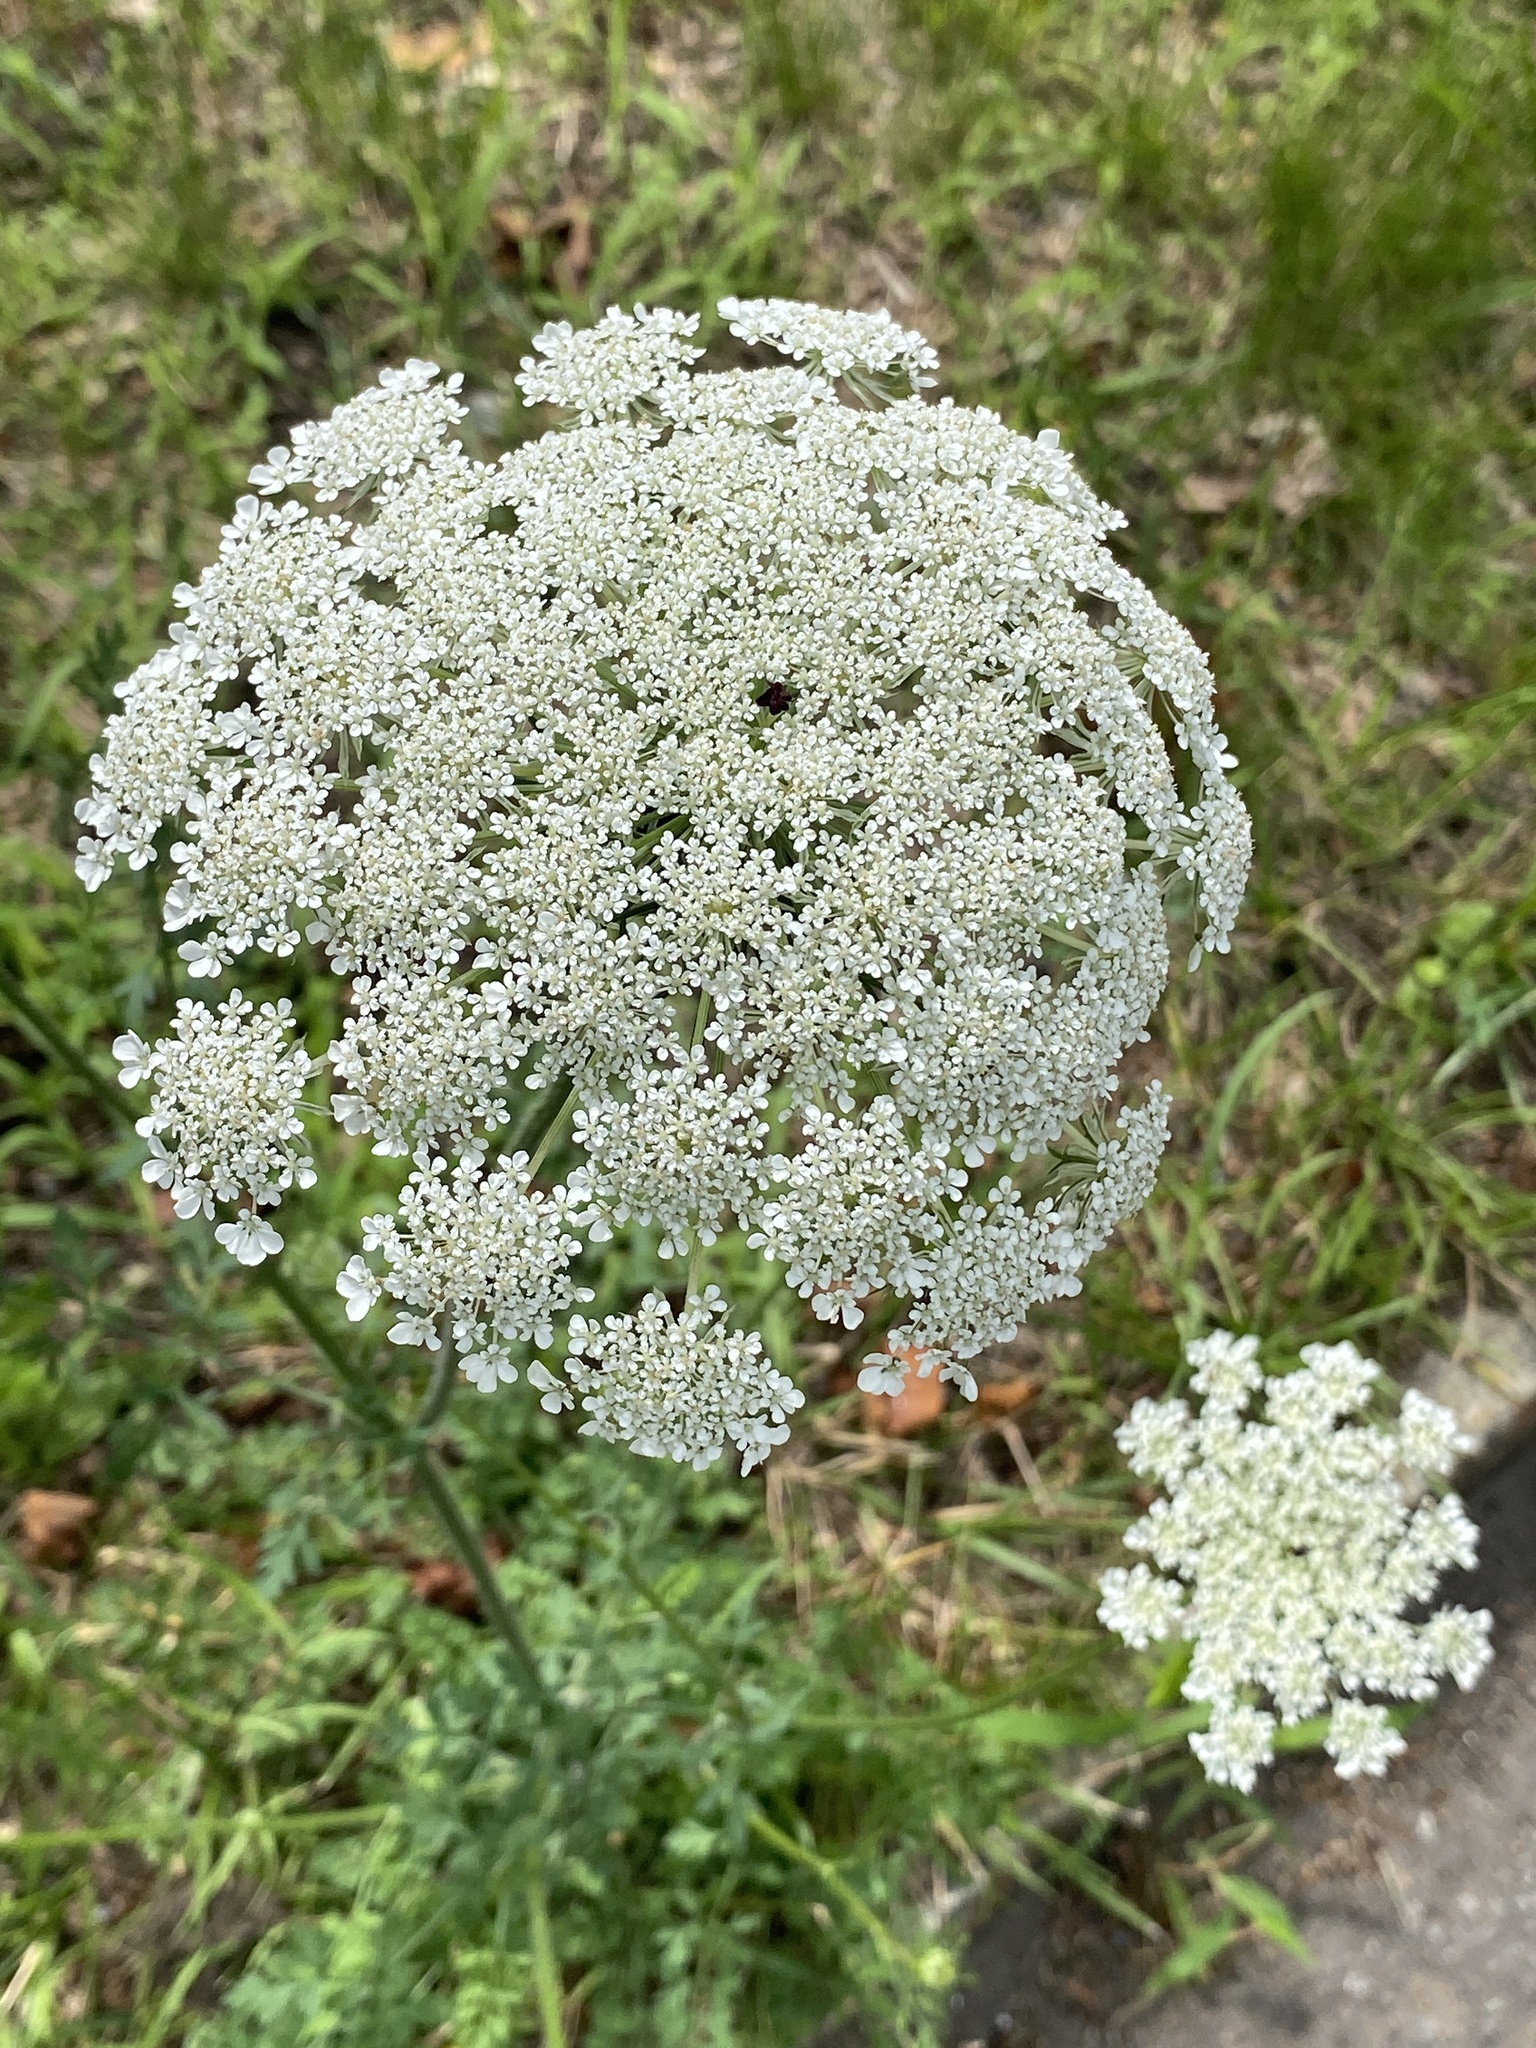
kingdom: Plantae
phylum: Tracheophyta
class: Magnoliopsida
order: Apiales
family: Apiaceae
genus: Daucus
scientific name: Daucus carota
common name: Wild carrot
